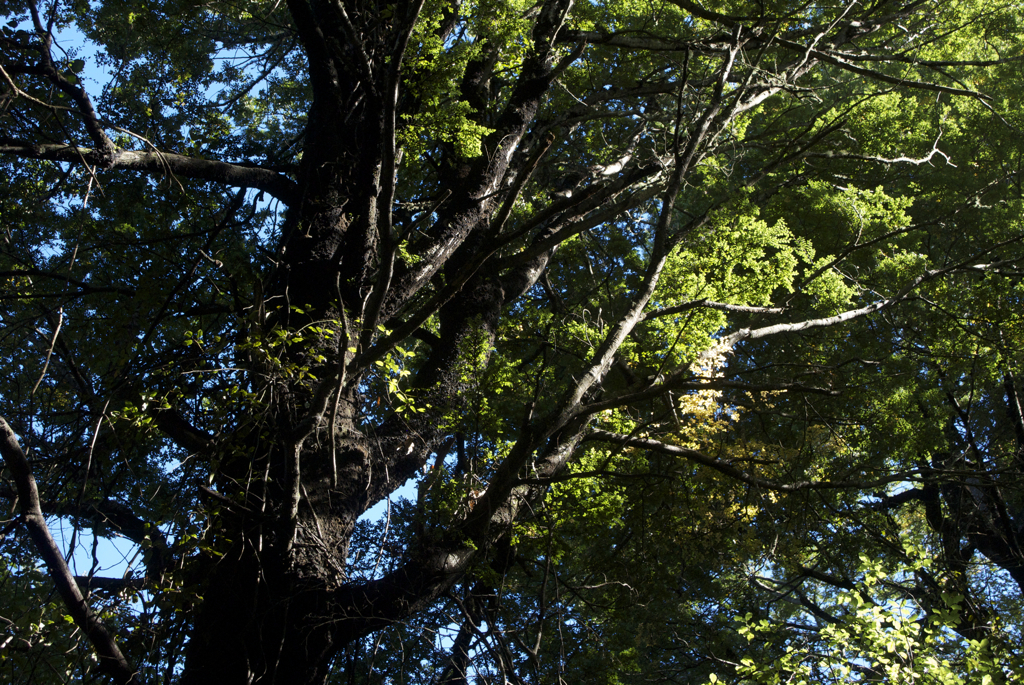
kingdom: Plantae
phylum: Tracheophyta
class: Magnoliopsida
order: Fagales
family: Nothofagaceae
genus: Nothofagus
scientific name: Nothofagus solandri
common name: Black beech
